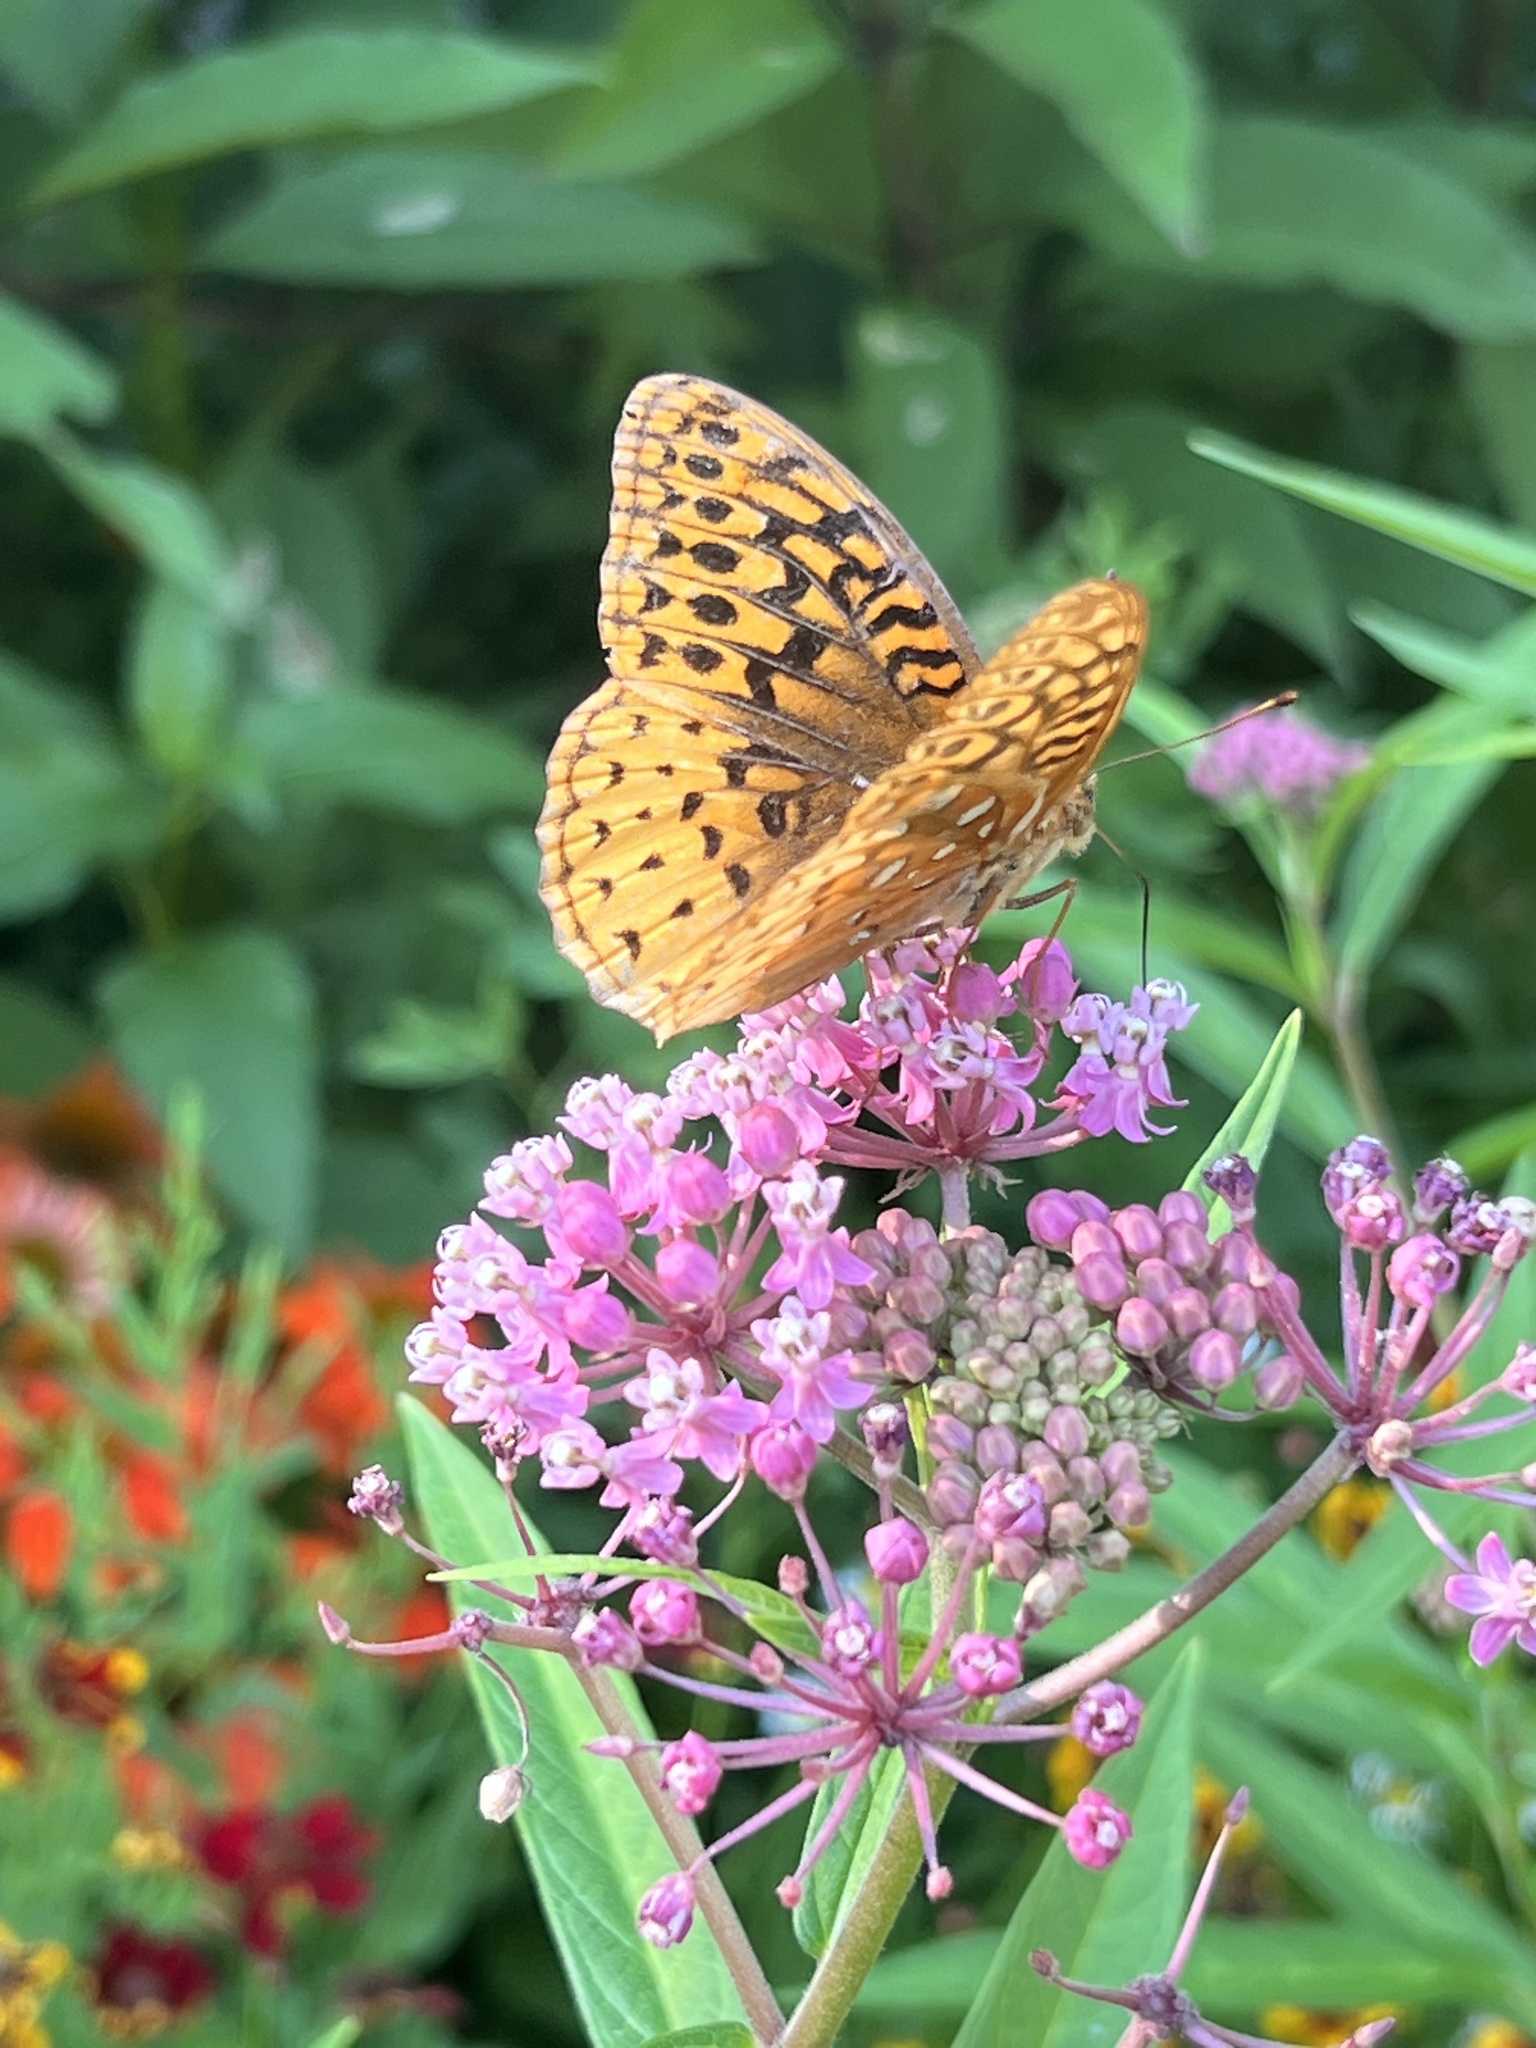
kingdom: Animalia
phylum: Arthropoda
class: Insecta
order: Lepidoptera
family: Nymphalidae
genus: Speyeria
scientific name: Speyeria cybele
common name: Great spangled fritillary
